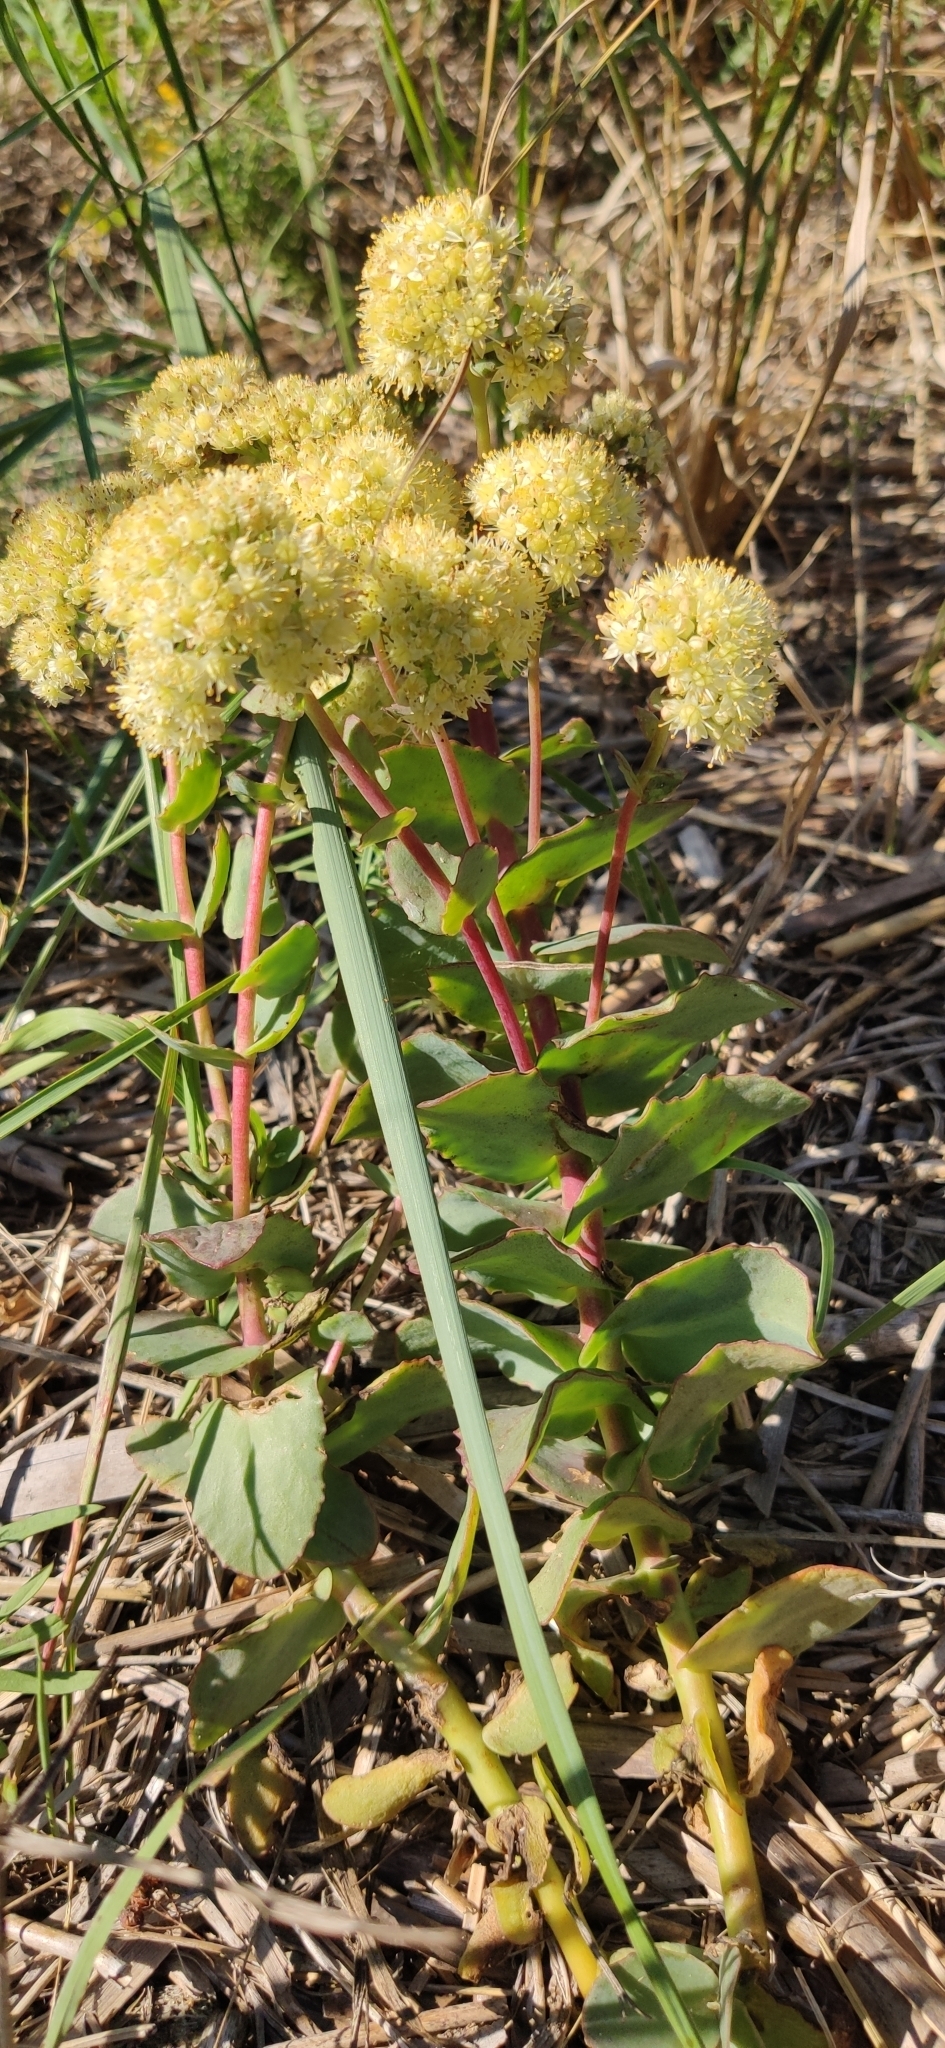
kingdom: Plantae
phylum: Tracheophyta
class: Magnoliopsida
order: Saxifragales
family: Crassulaceae
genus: Hylotelephium
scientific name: Hylotelephium maximum
